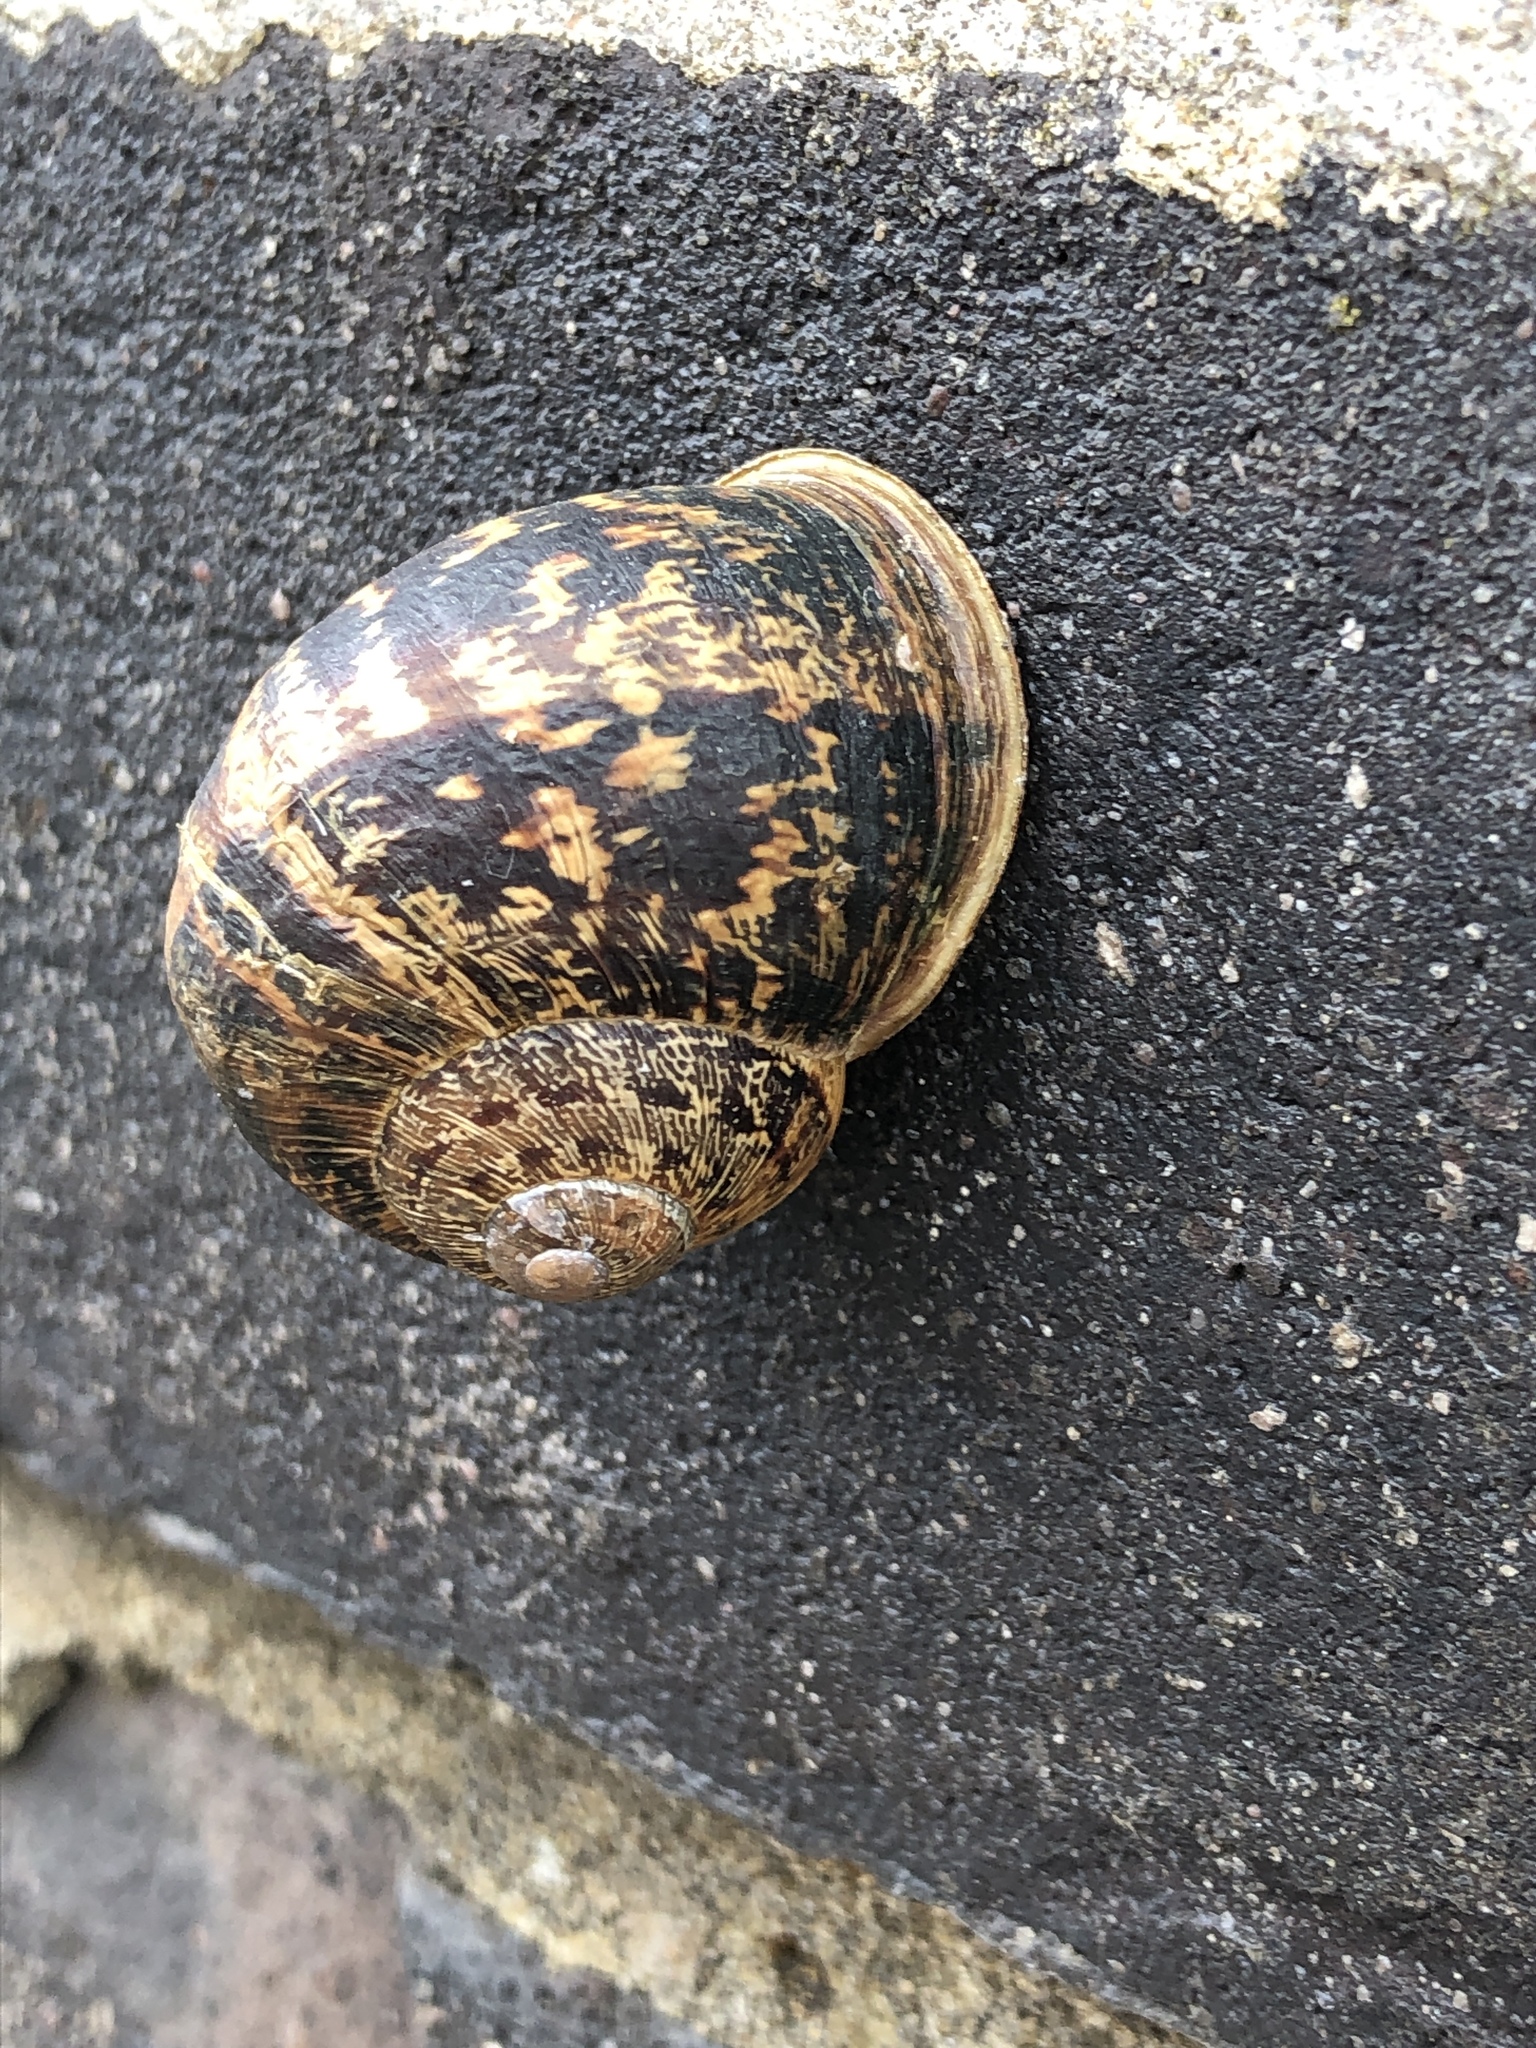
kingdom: Animalia
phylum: Mollusca
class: Gastropoda
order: Stylommatophora
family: Helicidae
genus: Cornu
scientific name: Cornu aspersum
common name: Brown garden snail
